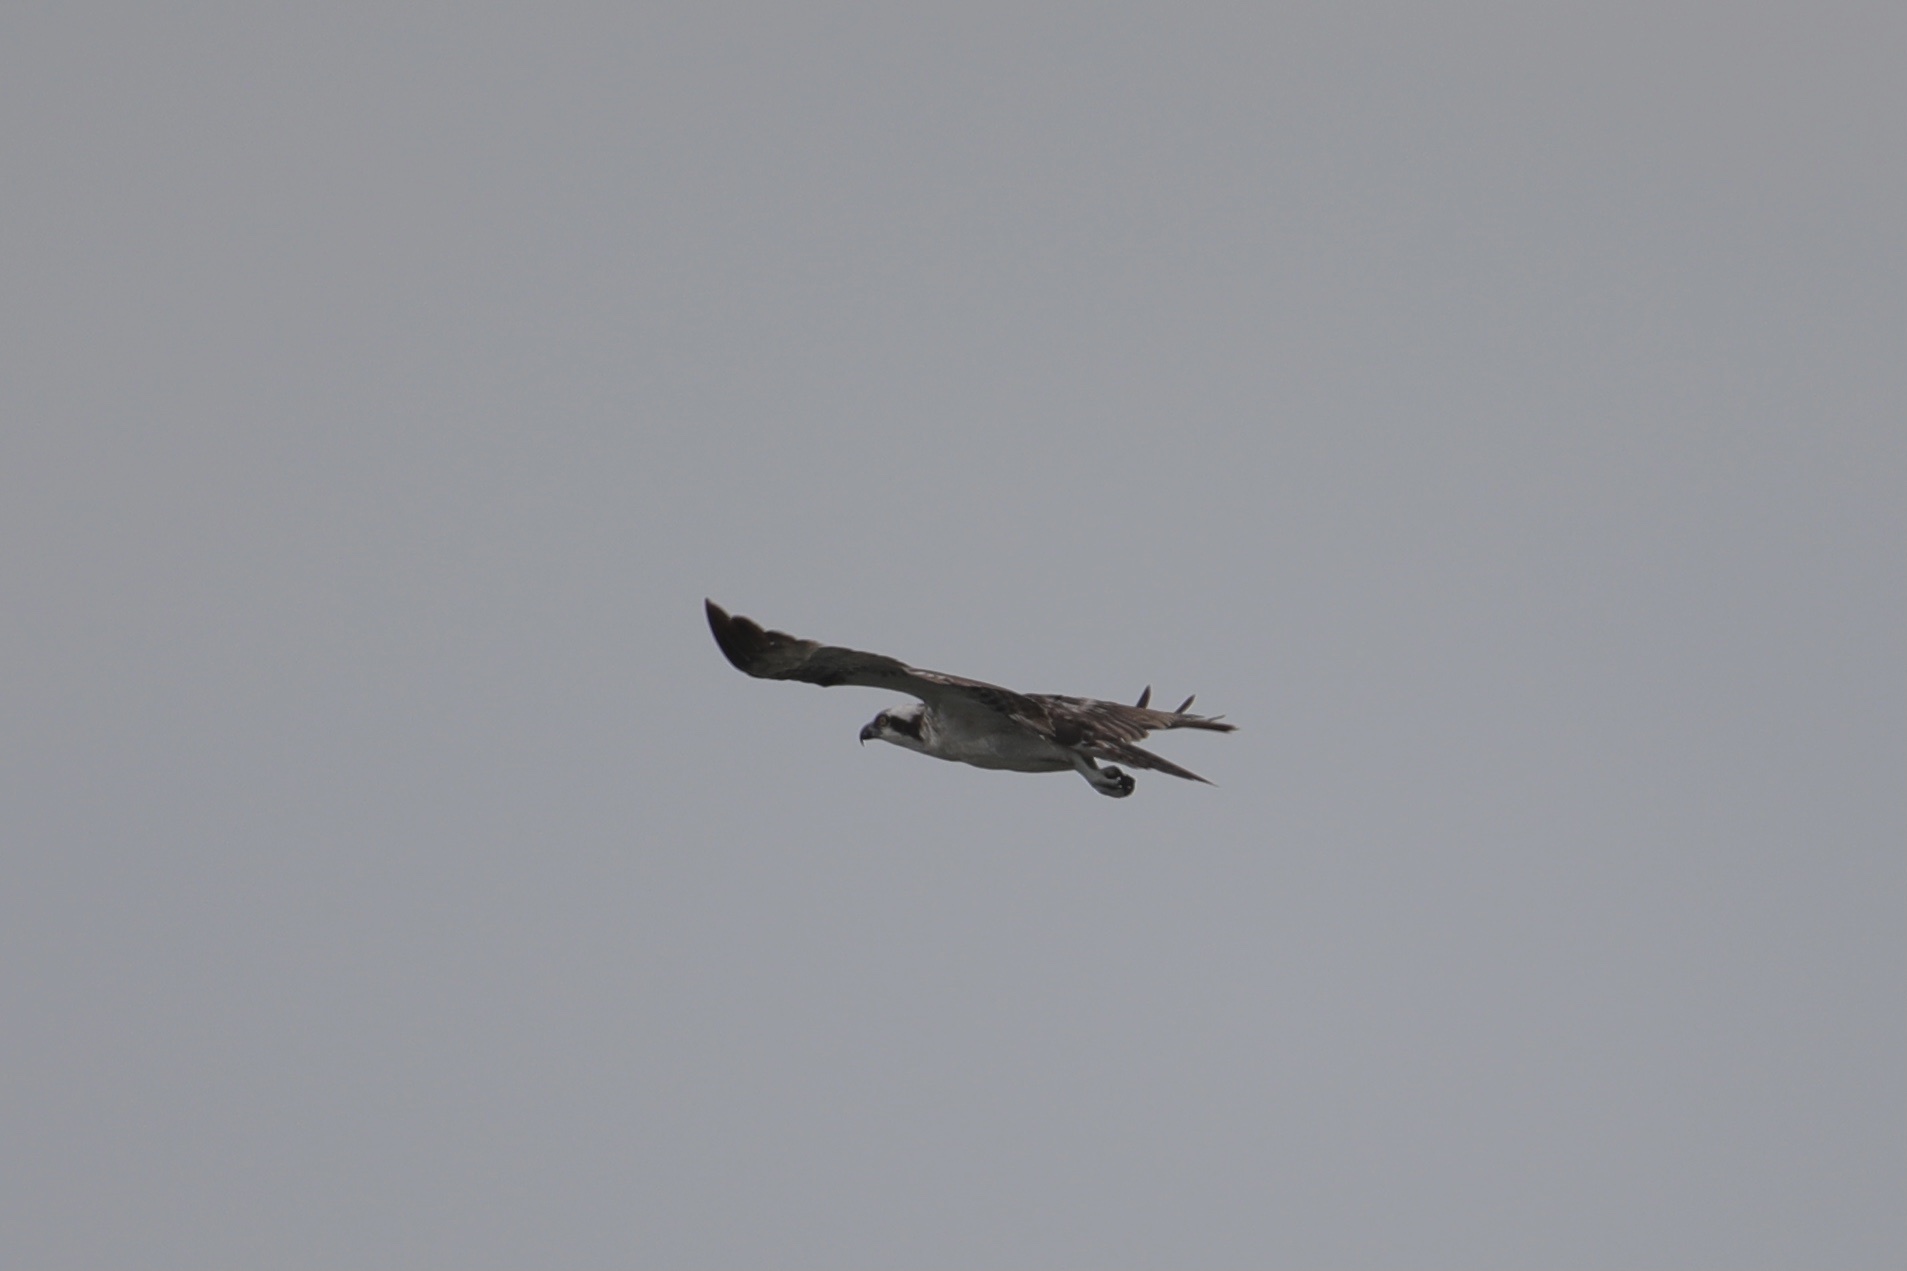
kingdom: Animalia
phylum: Chordata
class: Aves
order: Accipitriformes
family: Pandionidae
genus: Pandion
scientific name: Pandion haliaetus
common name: Osprey
